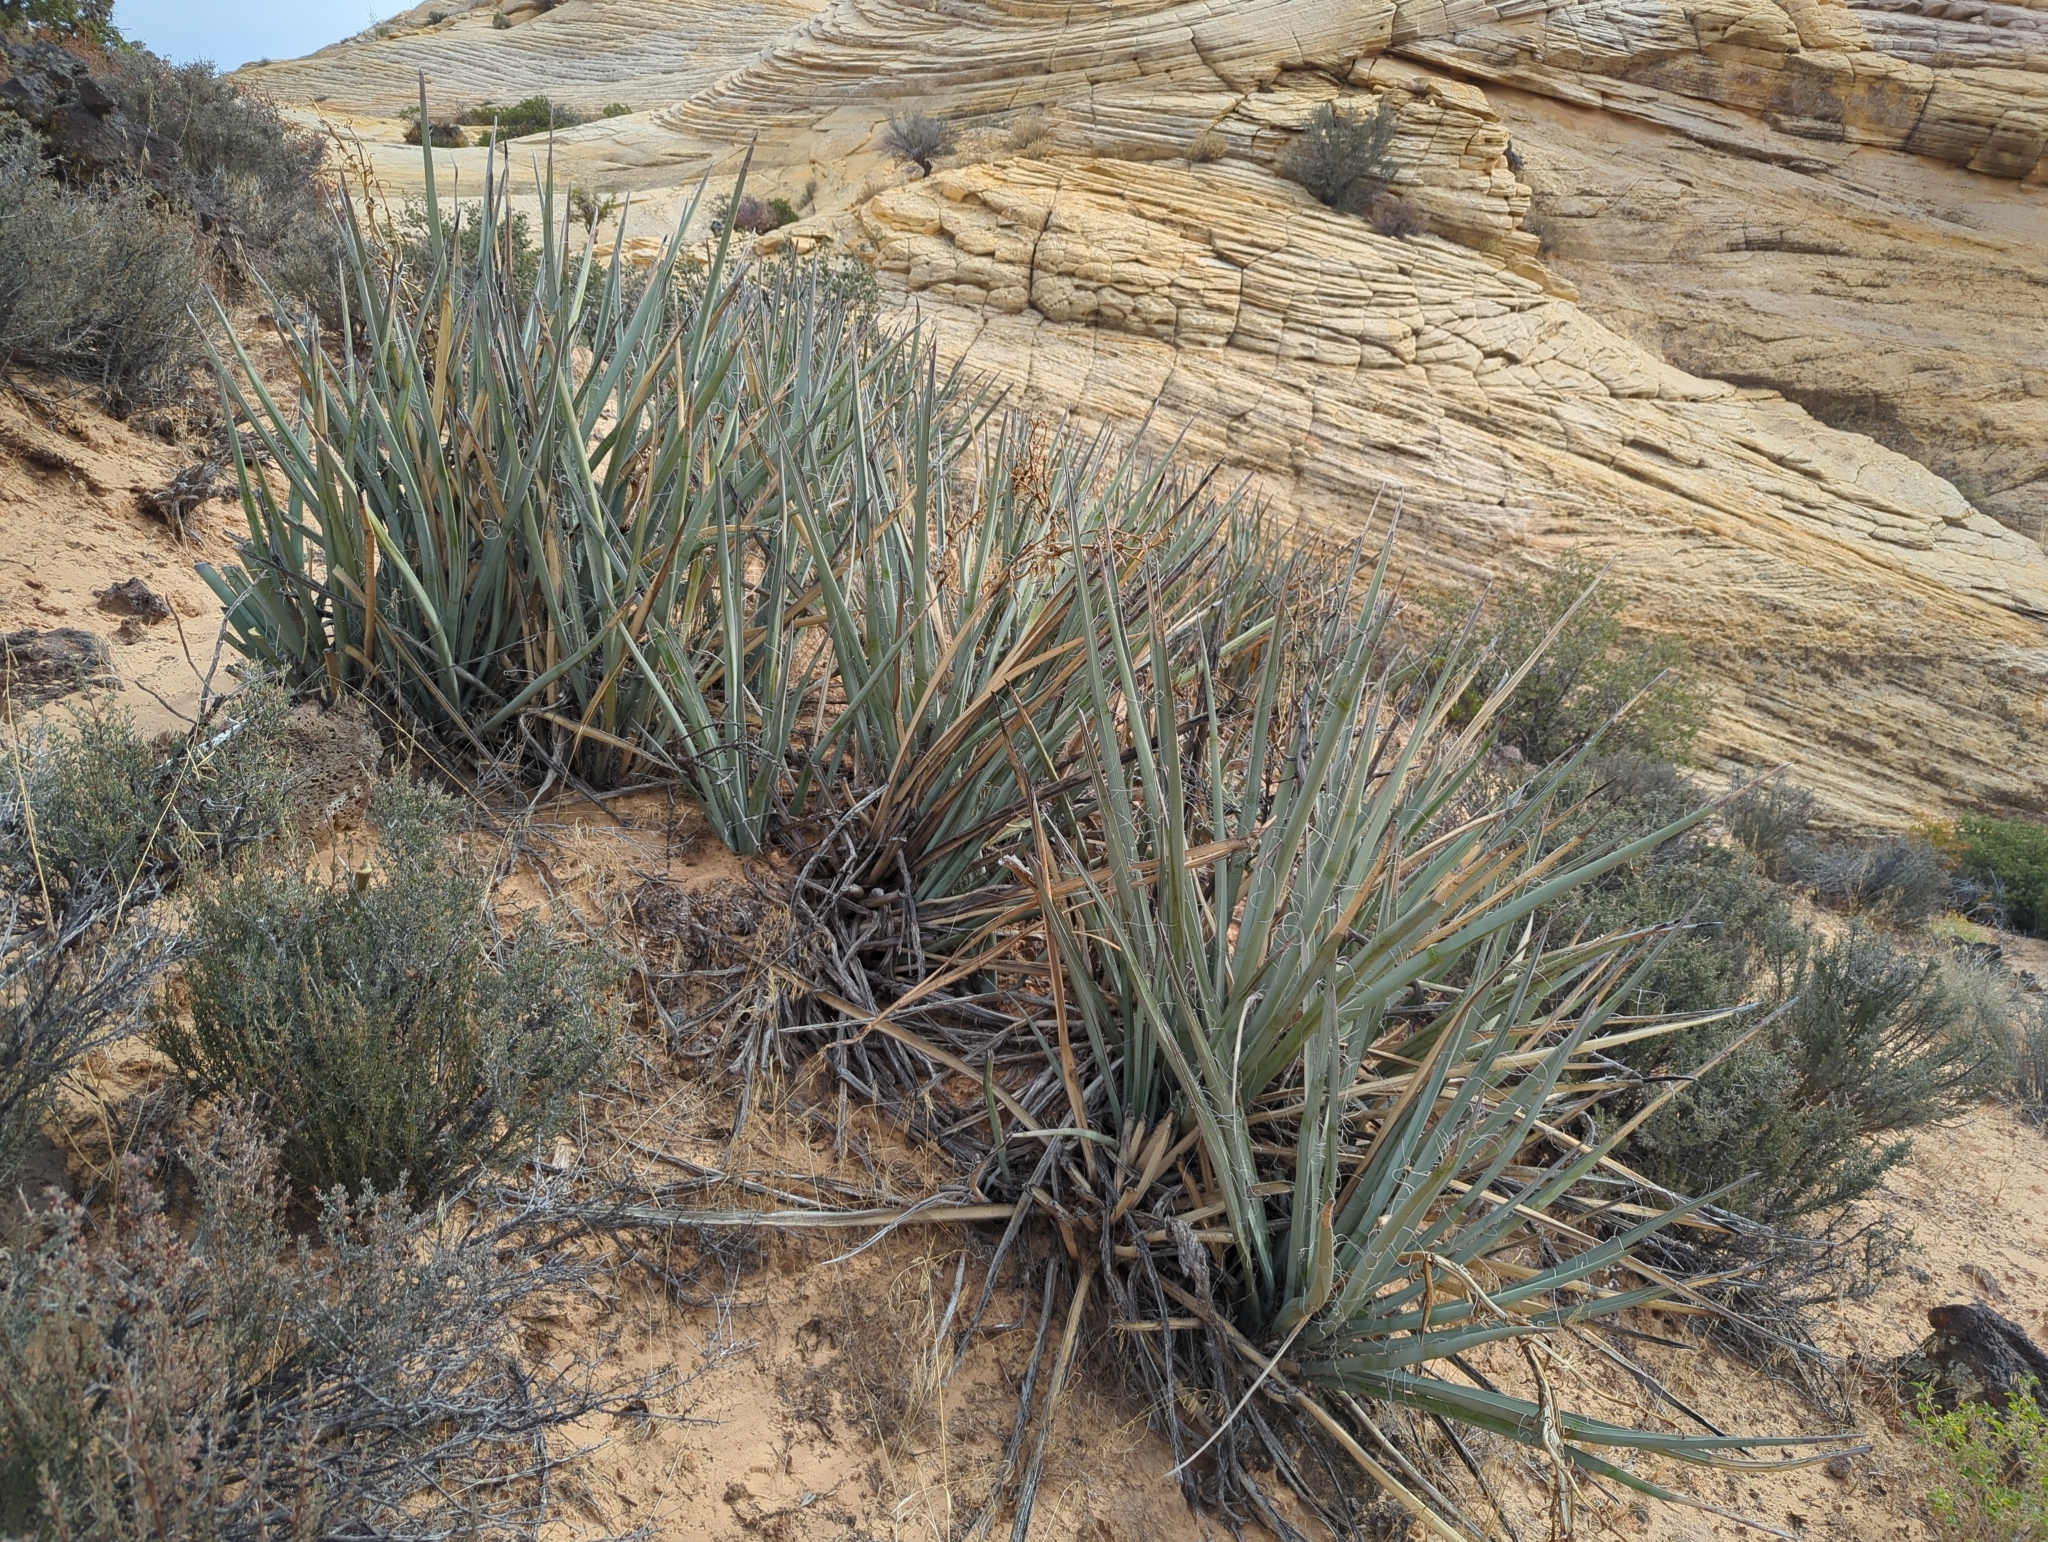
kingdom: Plantae
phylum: Tracheophyta
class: Liliopsida
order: Asparagales
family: Asparagaceae
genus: Yucca
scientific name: Yucca baccata
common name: Banana yucca
